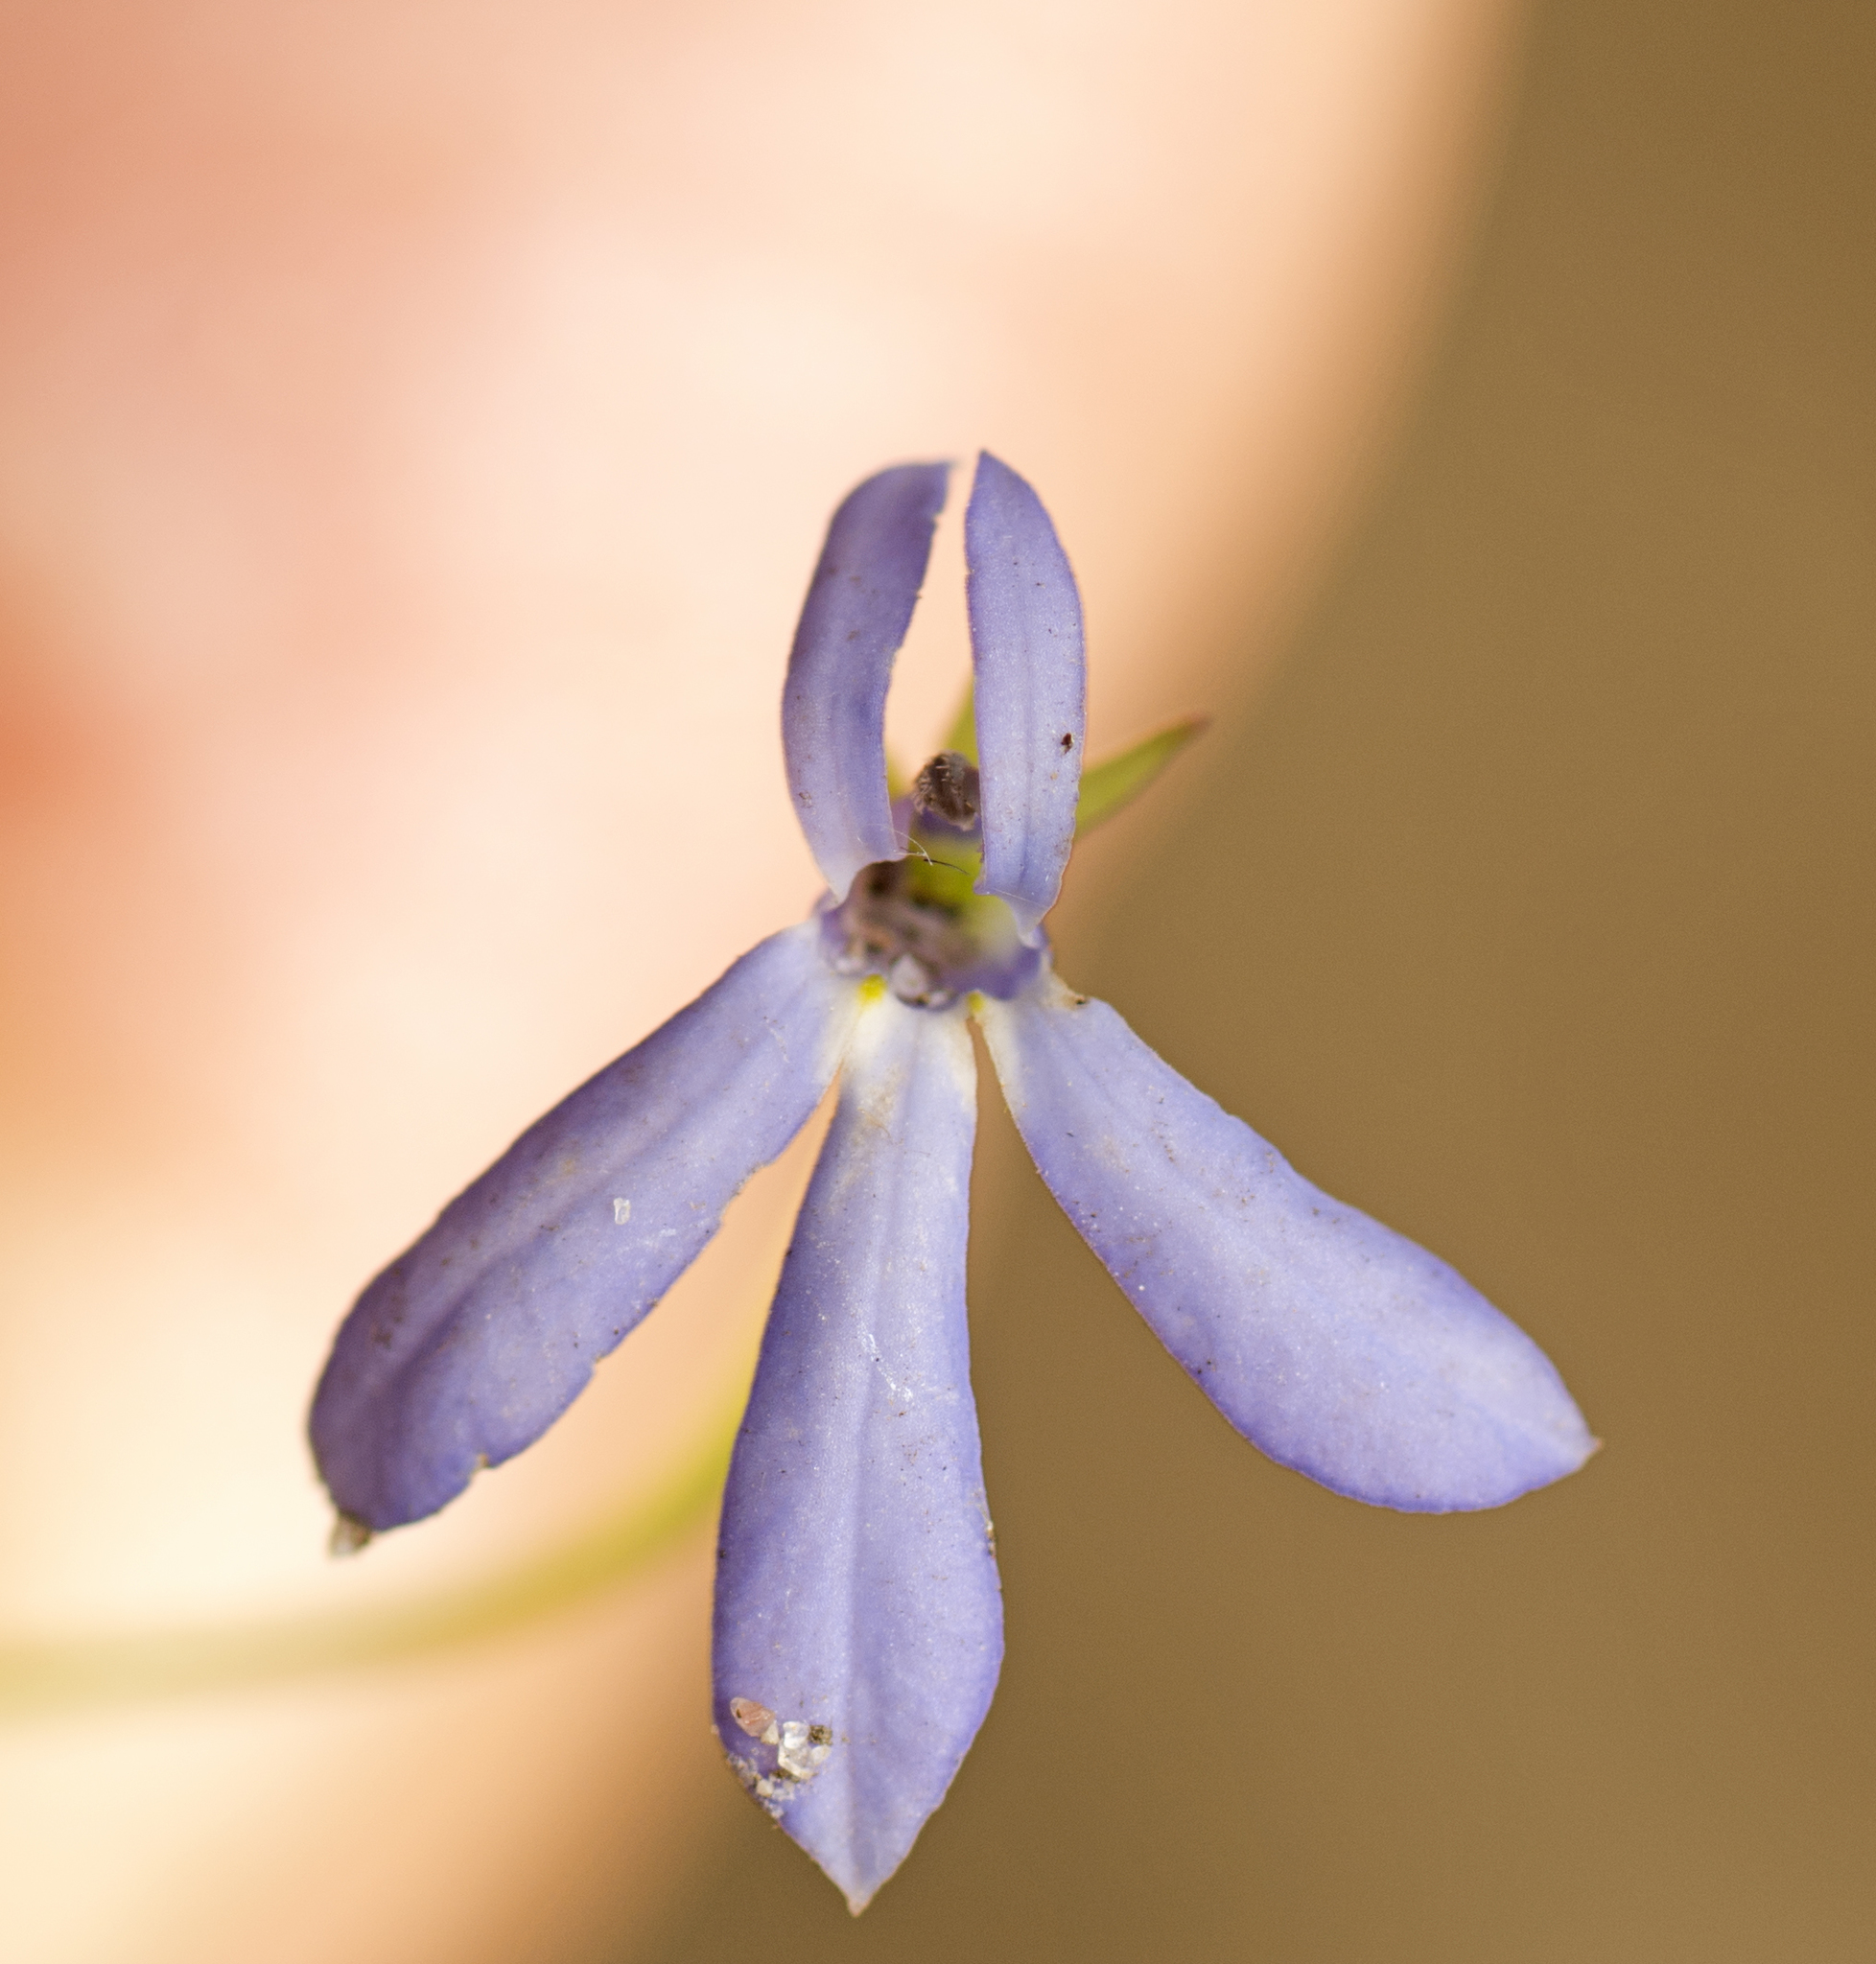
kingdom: Plantae
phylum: Tracheophyta
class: Magnoliopsida
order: Asterales
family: Campanulaceae
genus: Lobelia
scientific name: Lobelia quadrangularis
